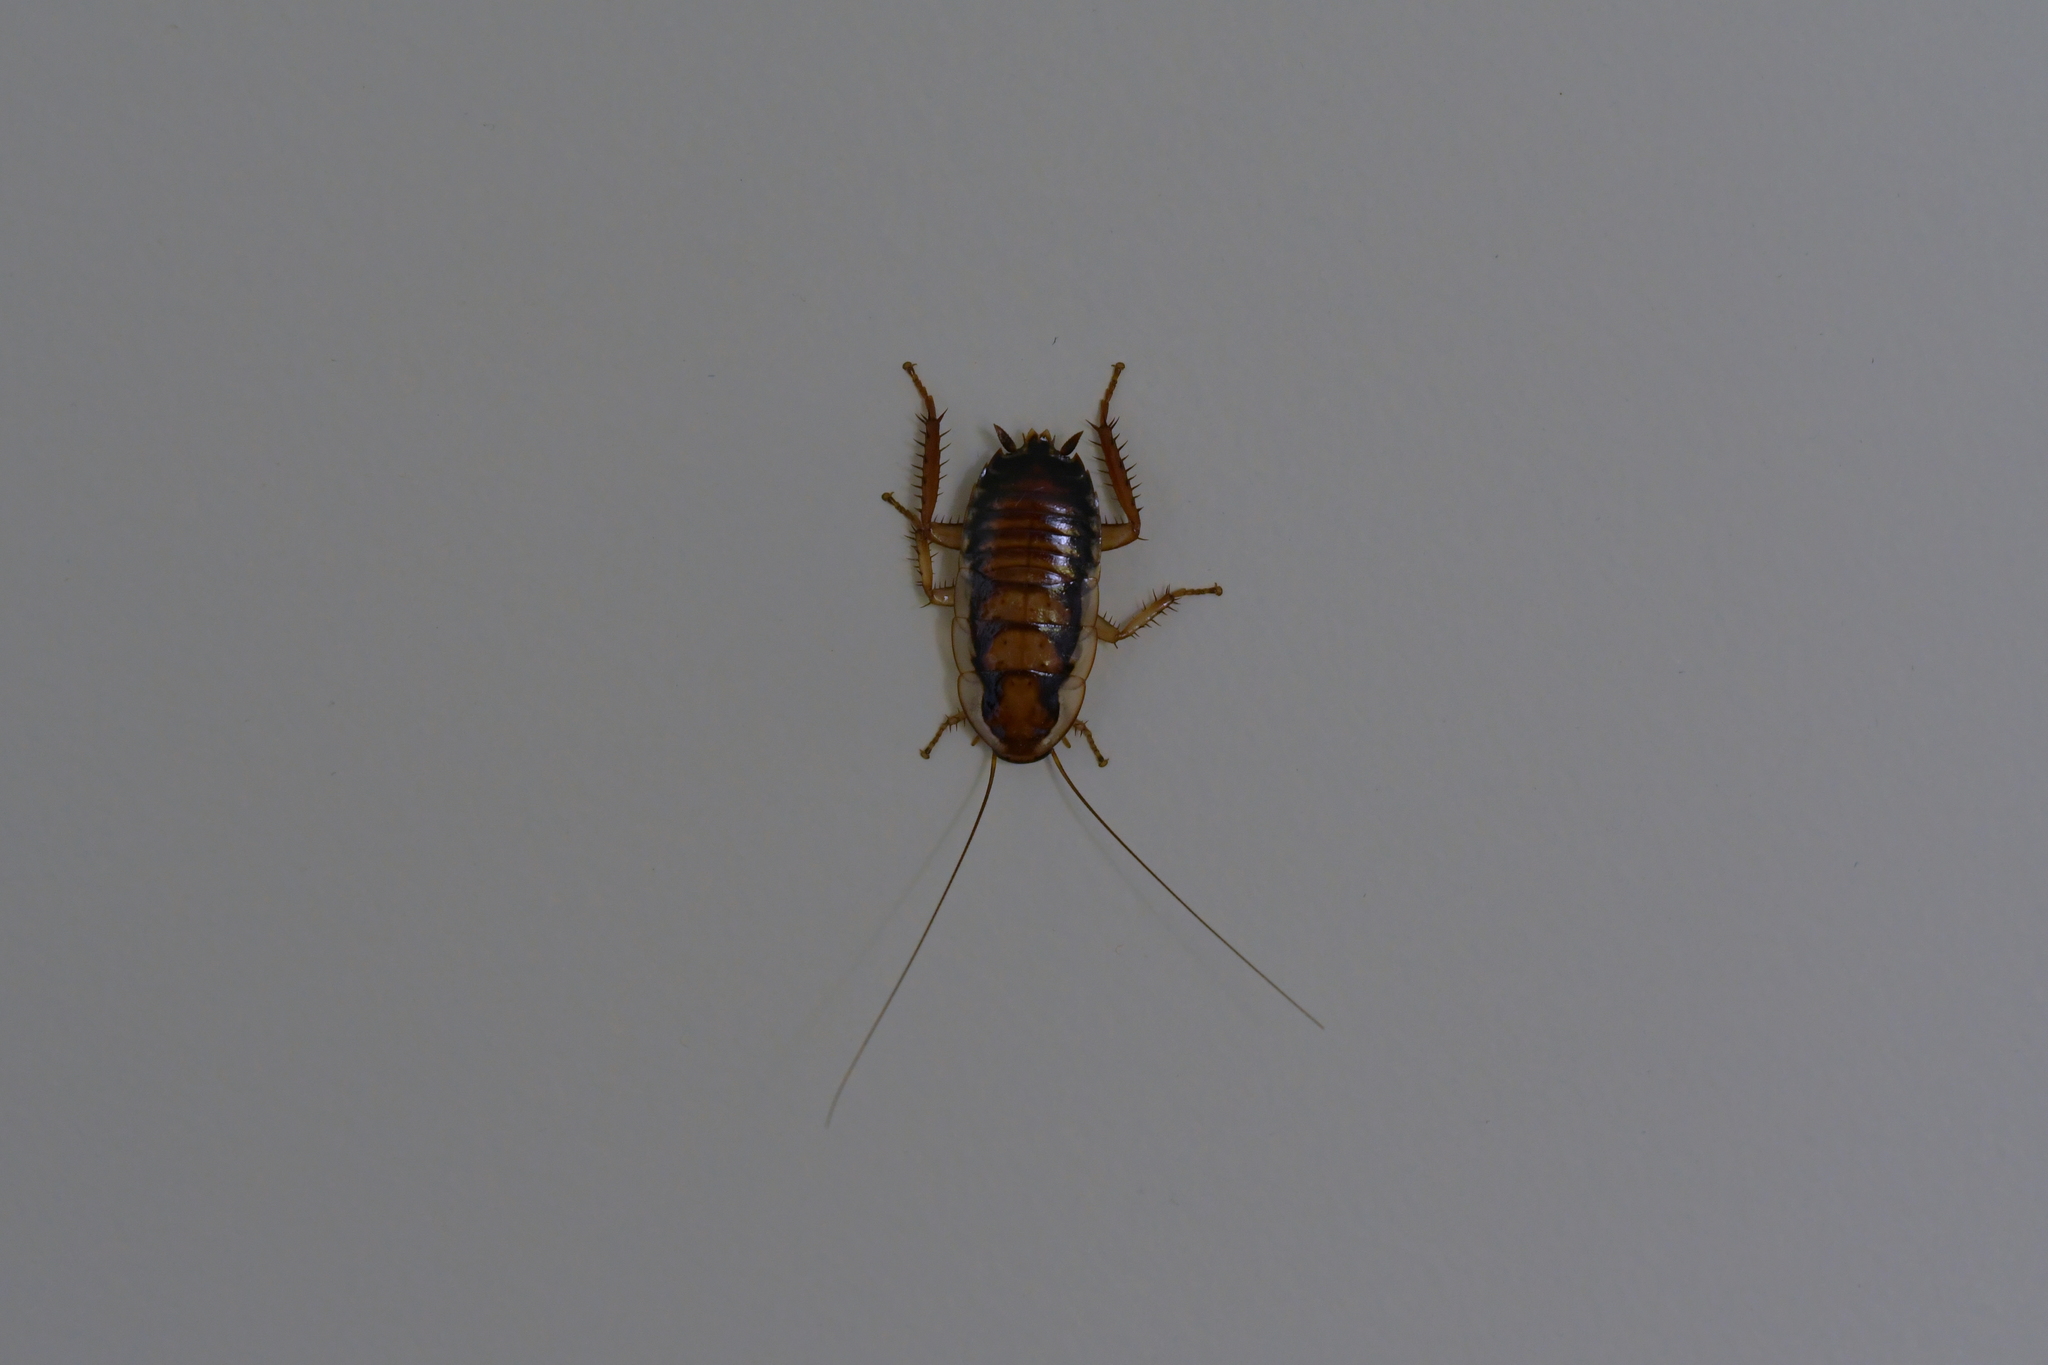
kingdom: Animalia
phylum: Arthropoda
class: Insecta
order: Blattodea
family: Blattidae
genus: Drymaplaneta
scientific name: Drymaplaneta semivitta
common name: Gisborne cockroach
